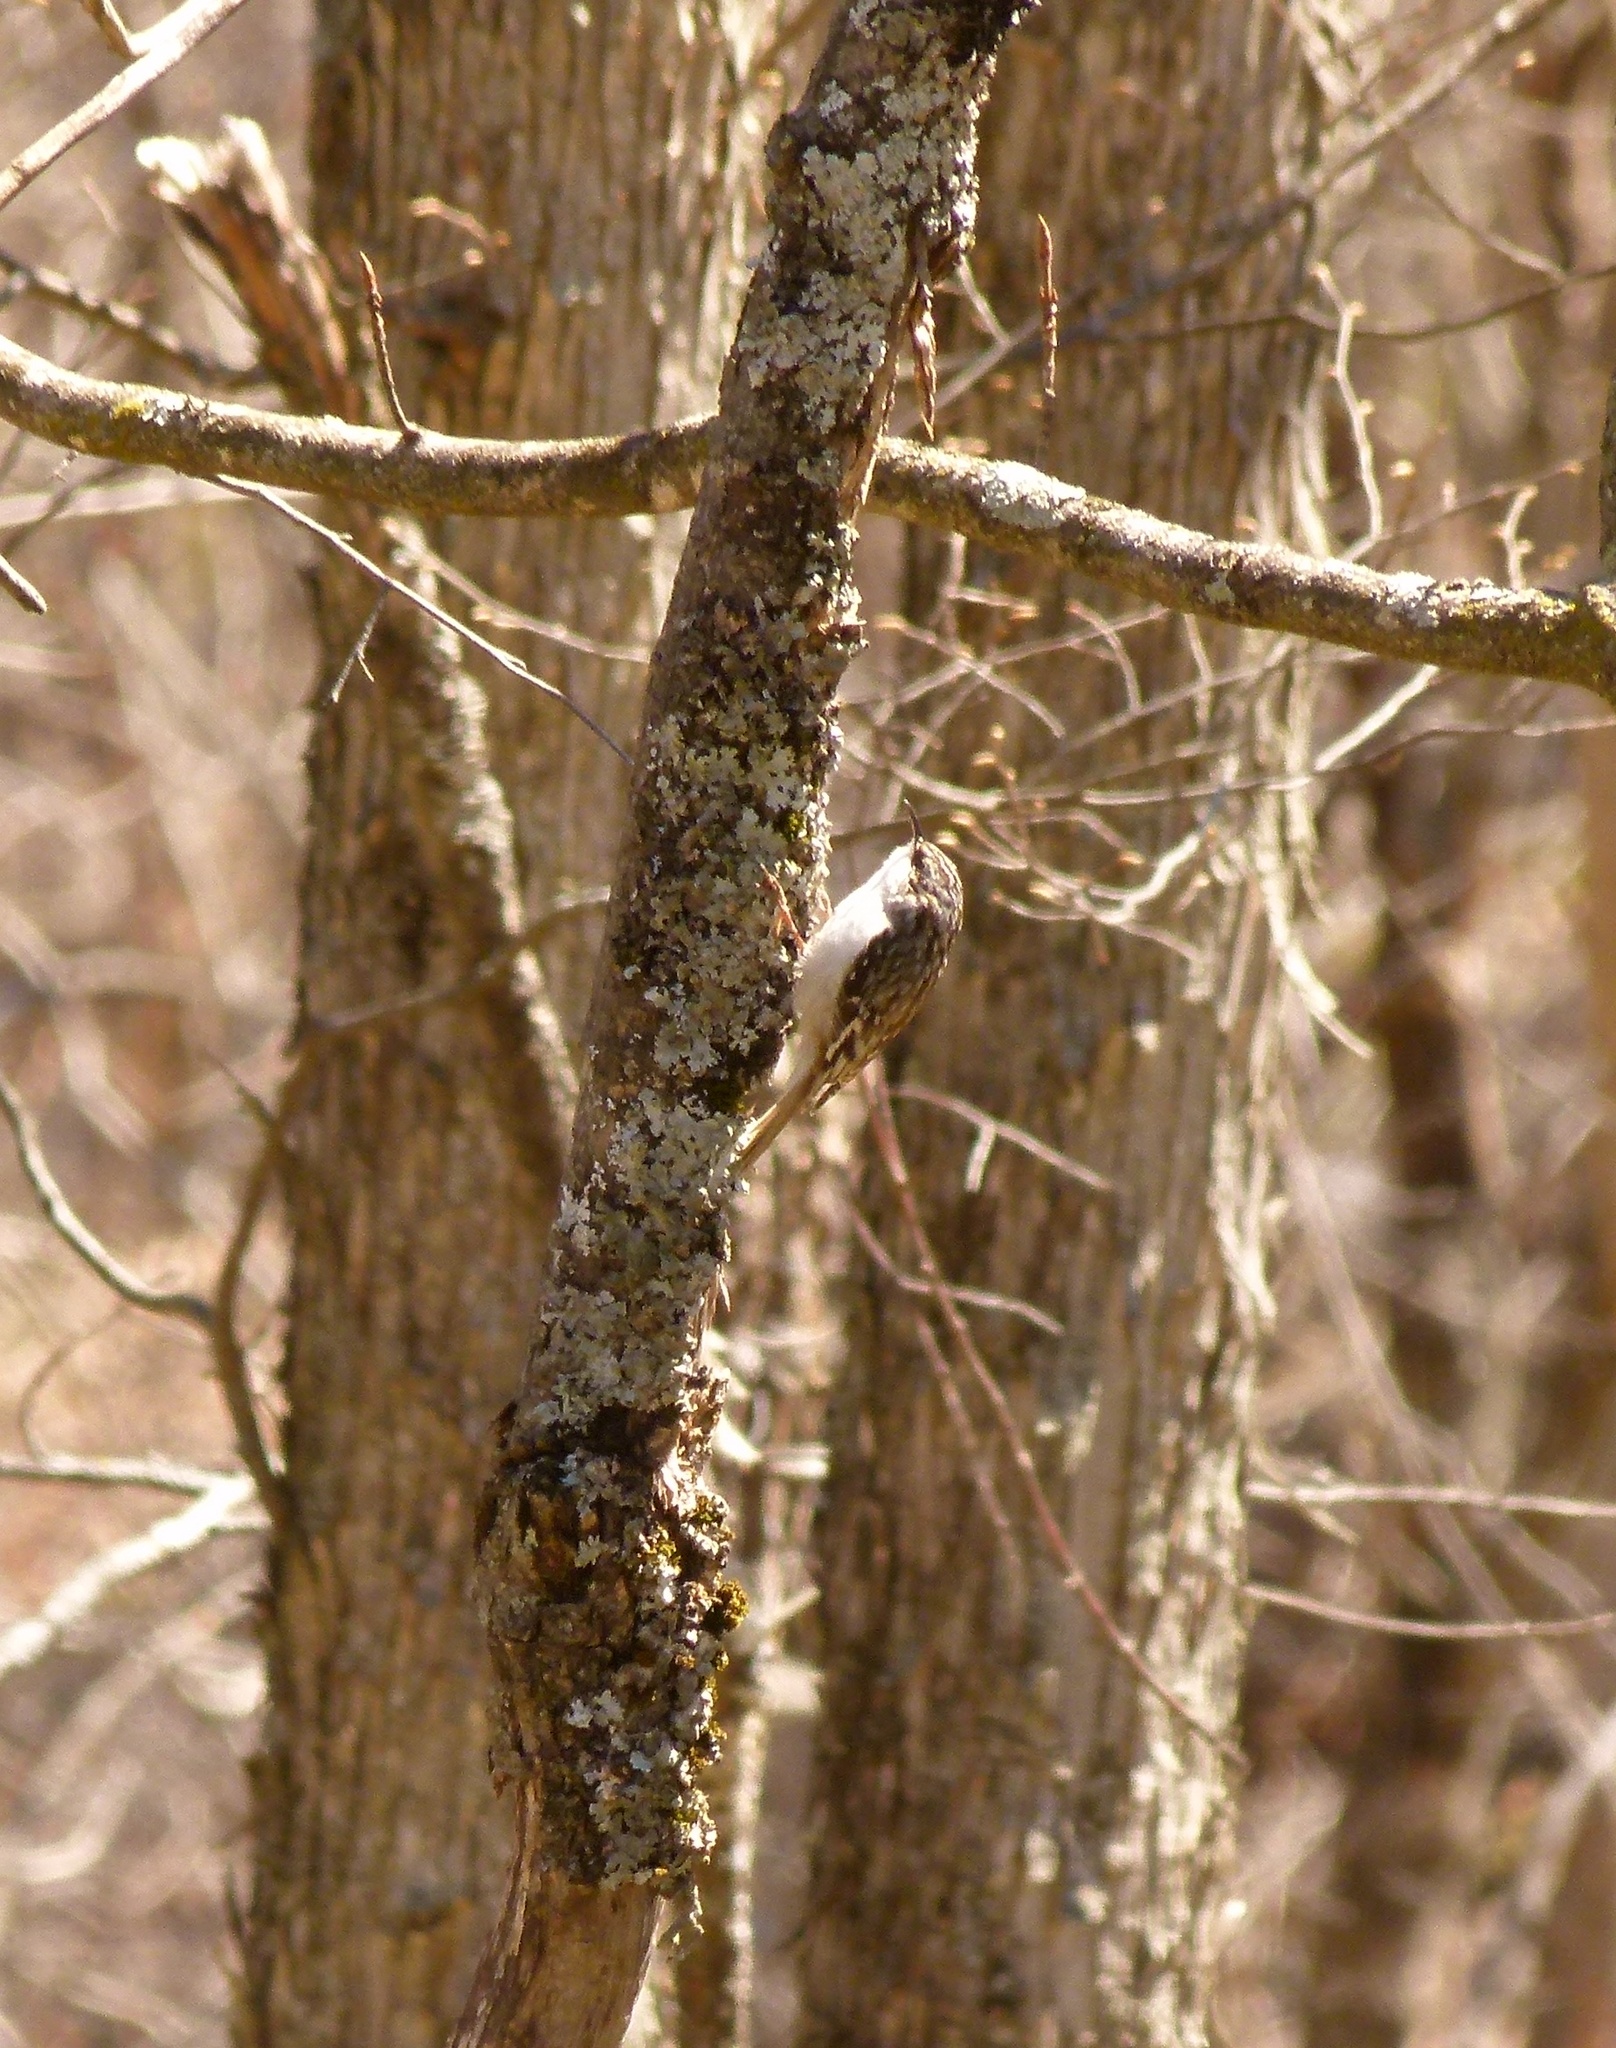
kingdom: Animalia
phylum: Chordata
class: Aves
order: Passeriformes
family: Certhiidae
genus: Certhia
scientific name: Certhia americana
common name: Brown creeper
